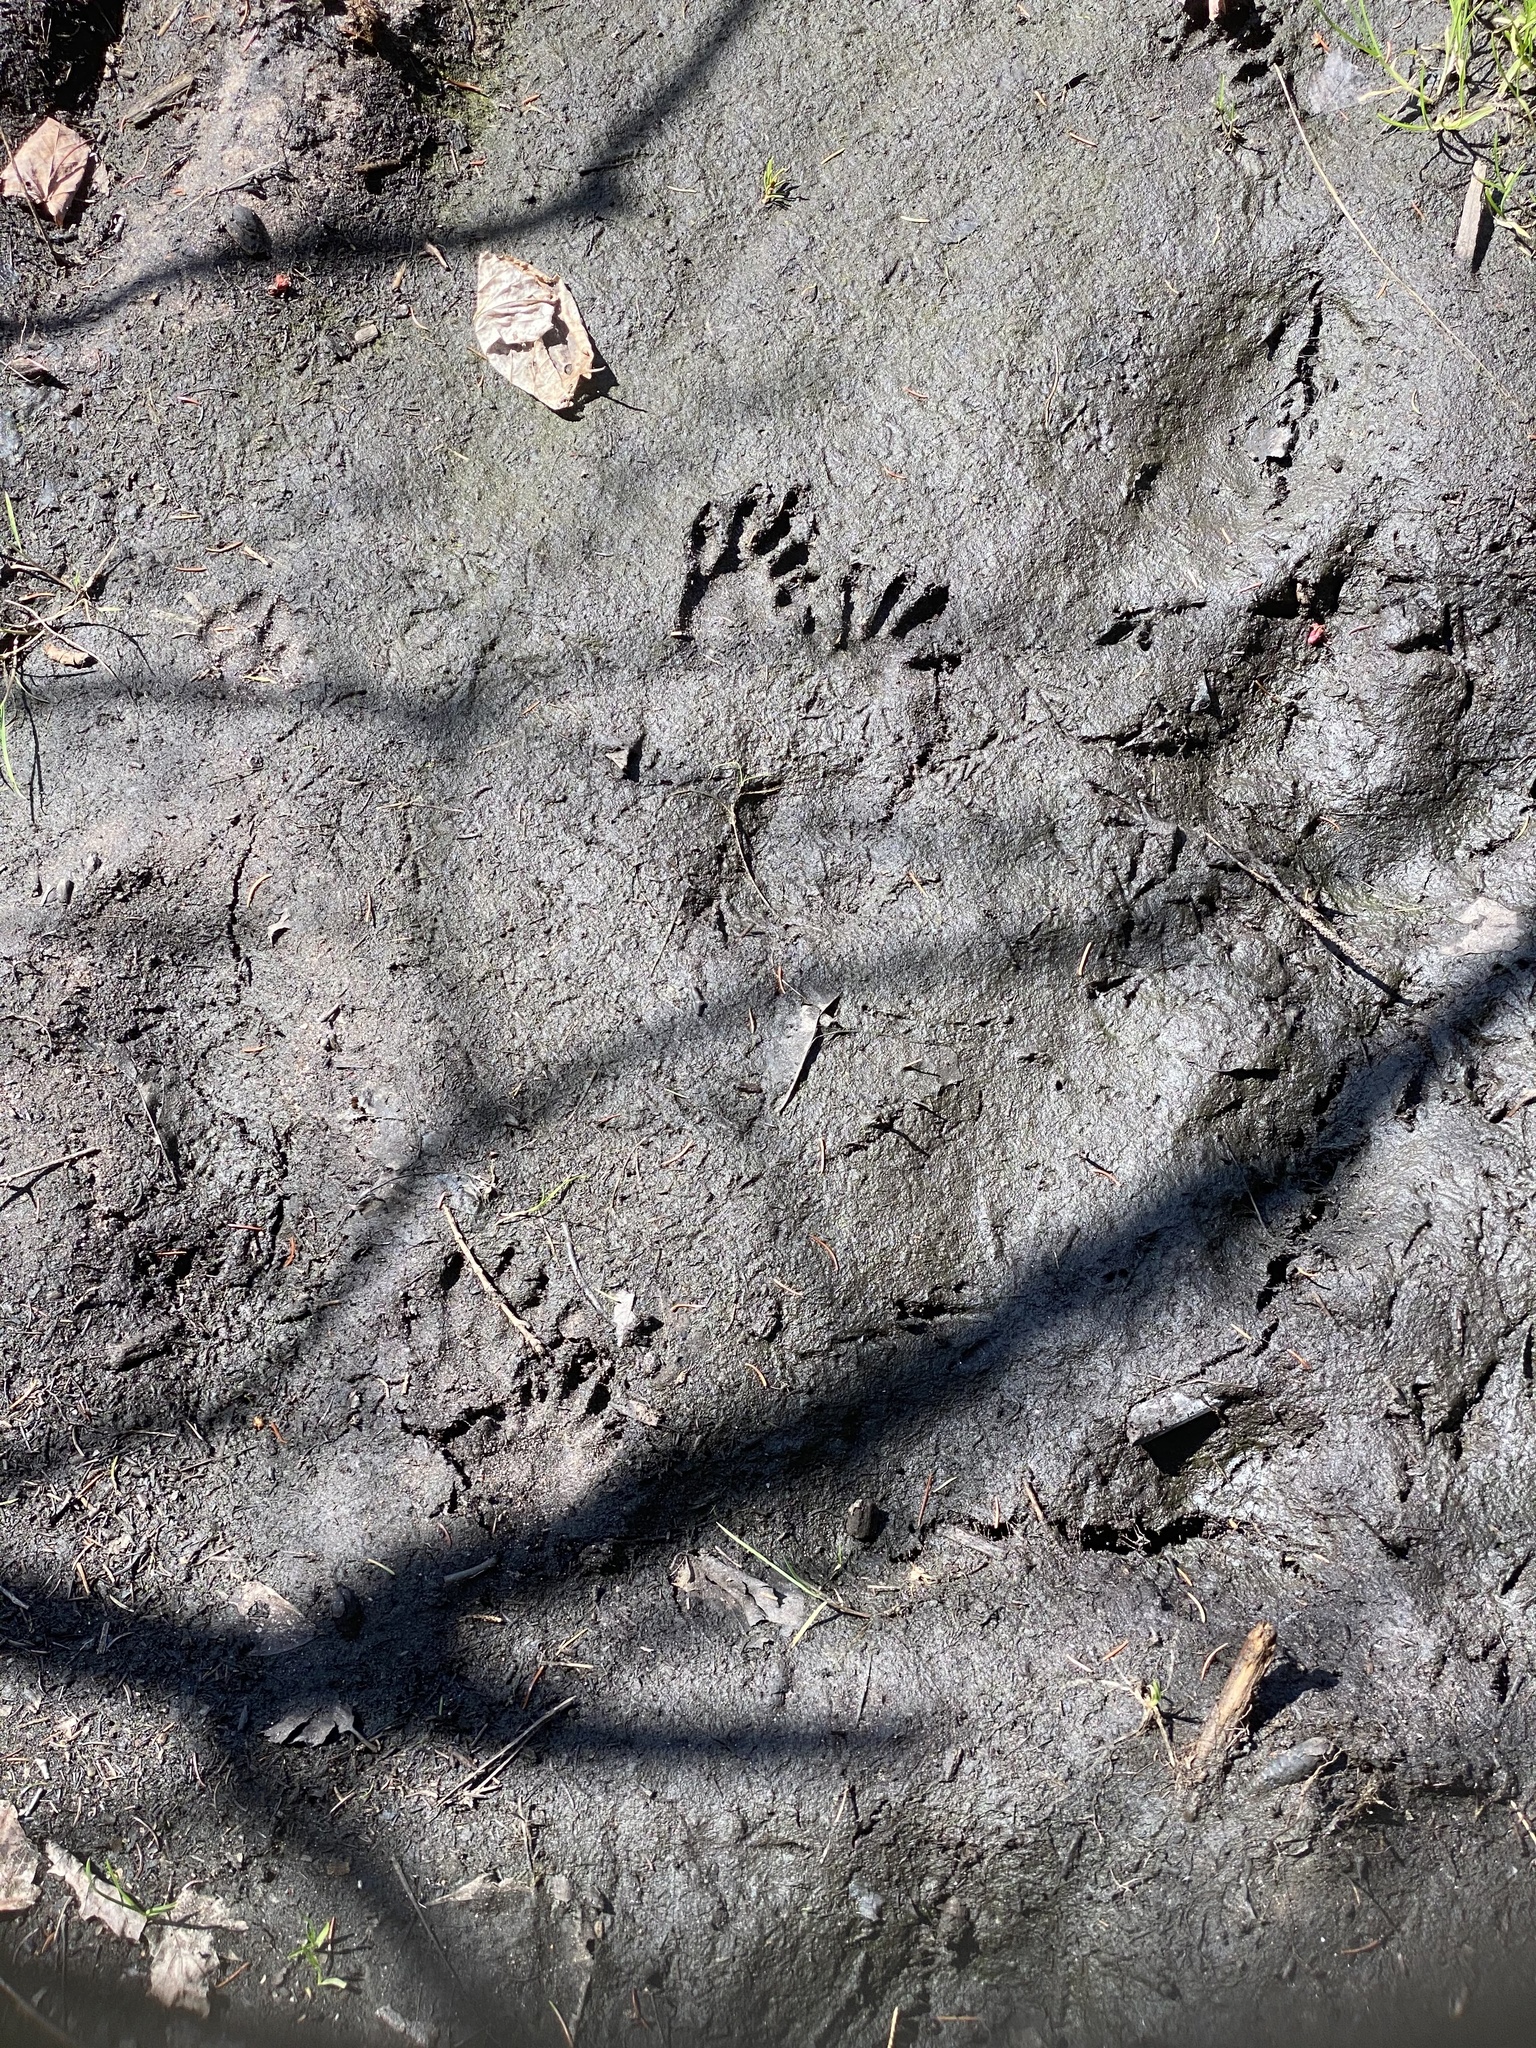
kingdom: Animalia
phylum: Chordata
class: Mammalia
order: Carnivora
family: Procyonidae
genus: Procyon
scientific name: Procyon lotor
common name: Raccoon
